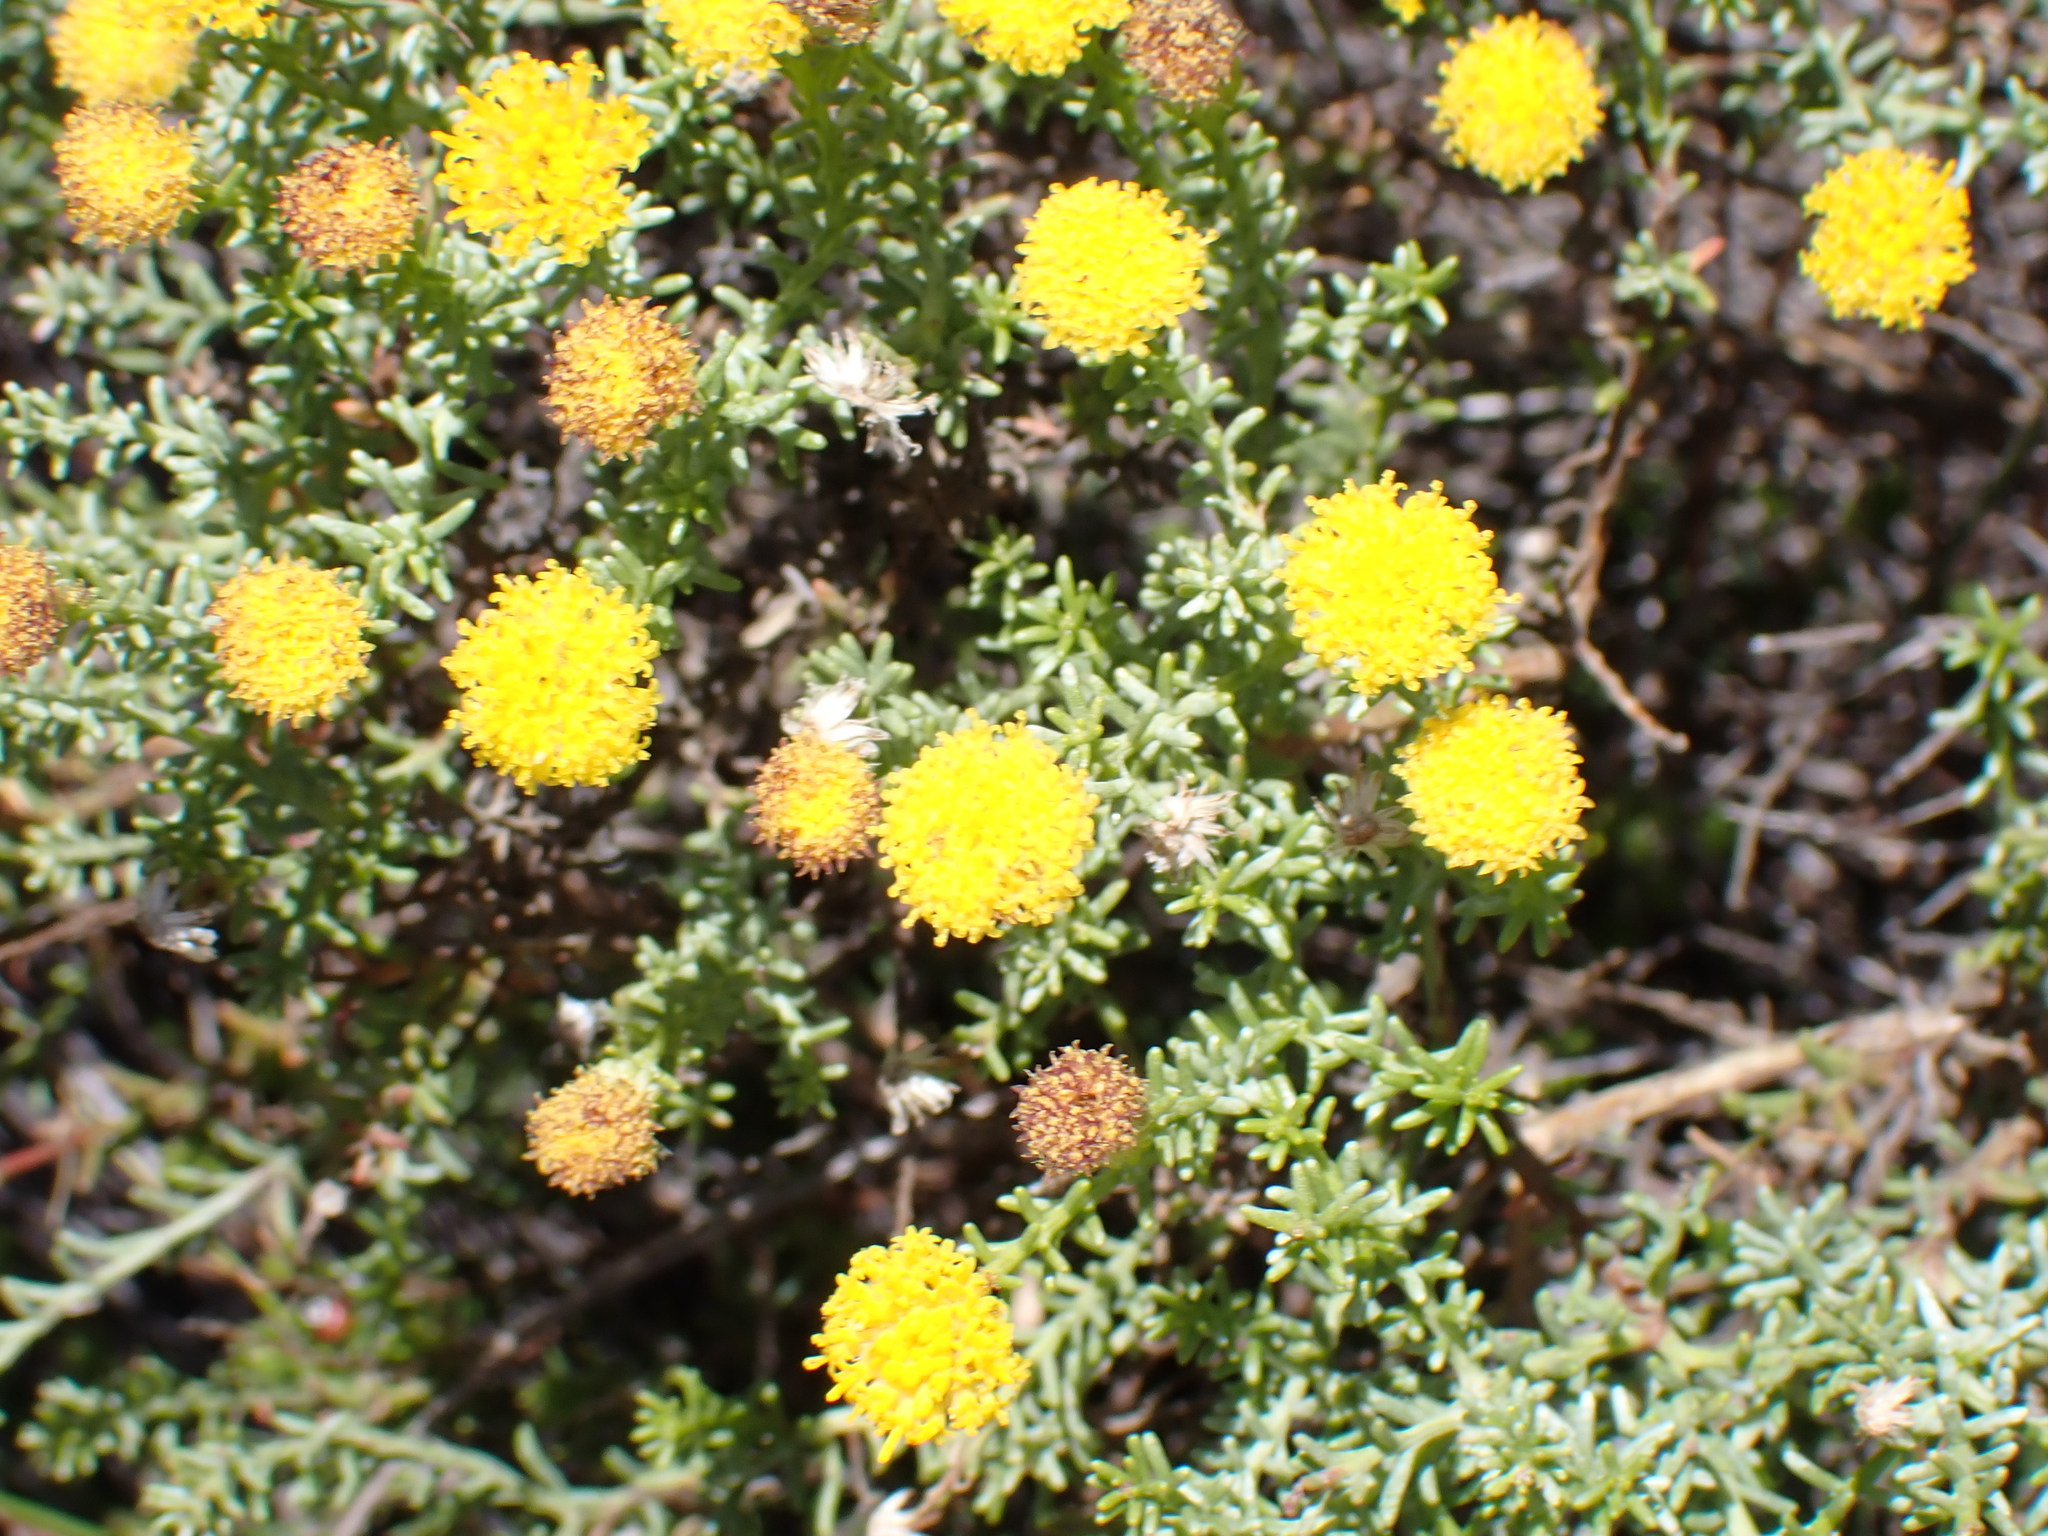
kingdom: Plantae
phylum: Tracheophyta
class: Magnoliopsida
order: Asterales
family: Asteraceae
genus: Chrysocoma
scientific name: Chrysocoma ciliata
